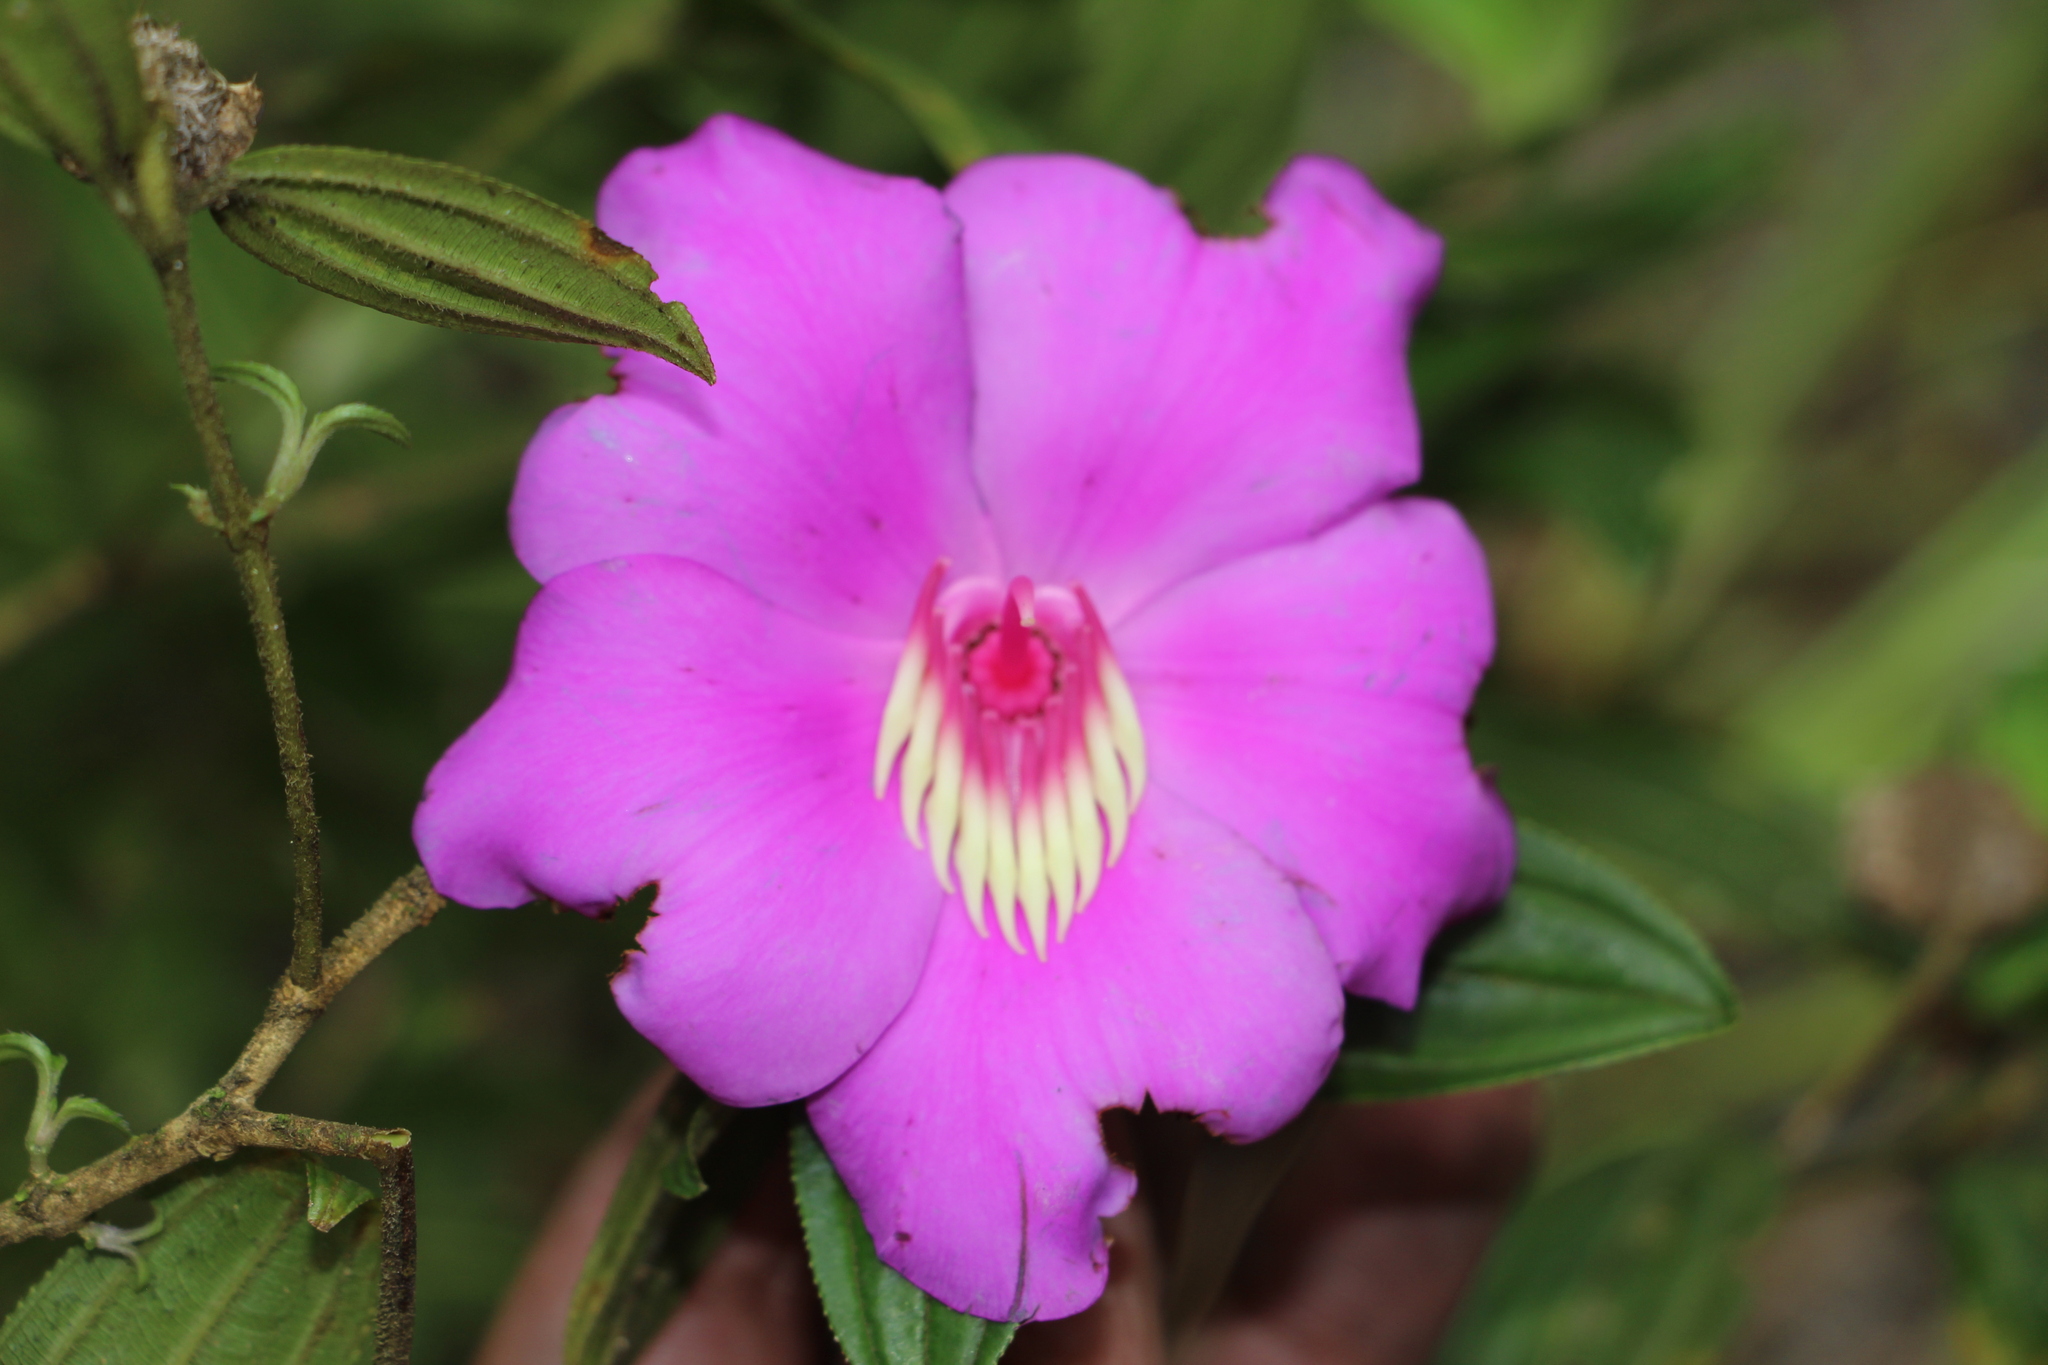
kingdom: Plantae
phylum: Tracheophyta
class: Magnoliopsida
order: Myrtales
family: Melastomataceae
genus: Meriania
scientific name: Meriania speciosa
